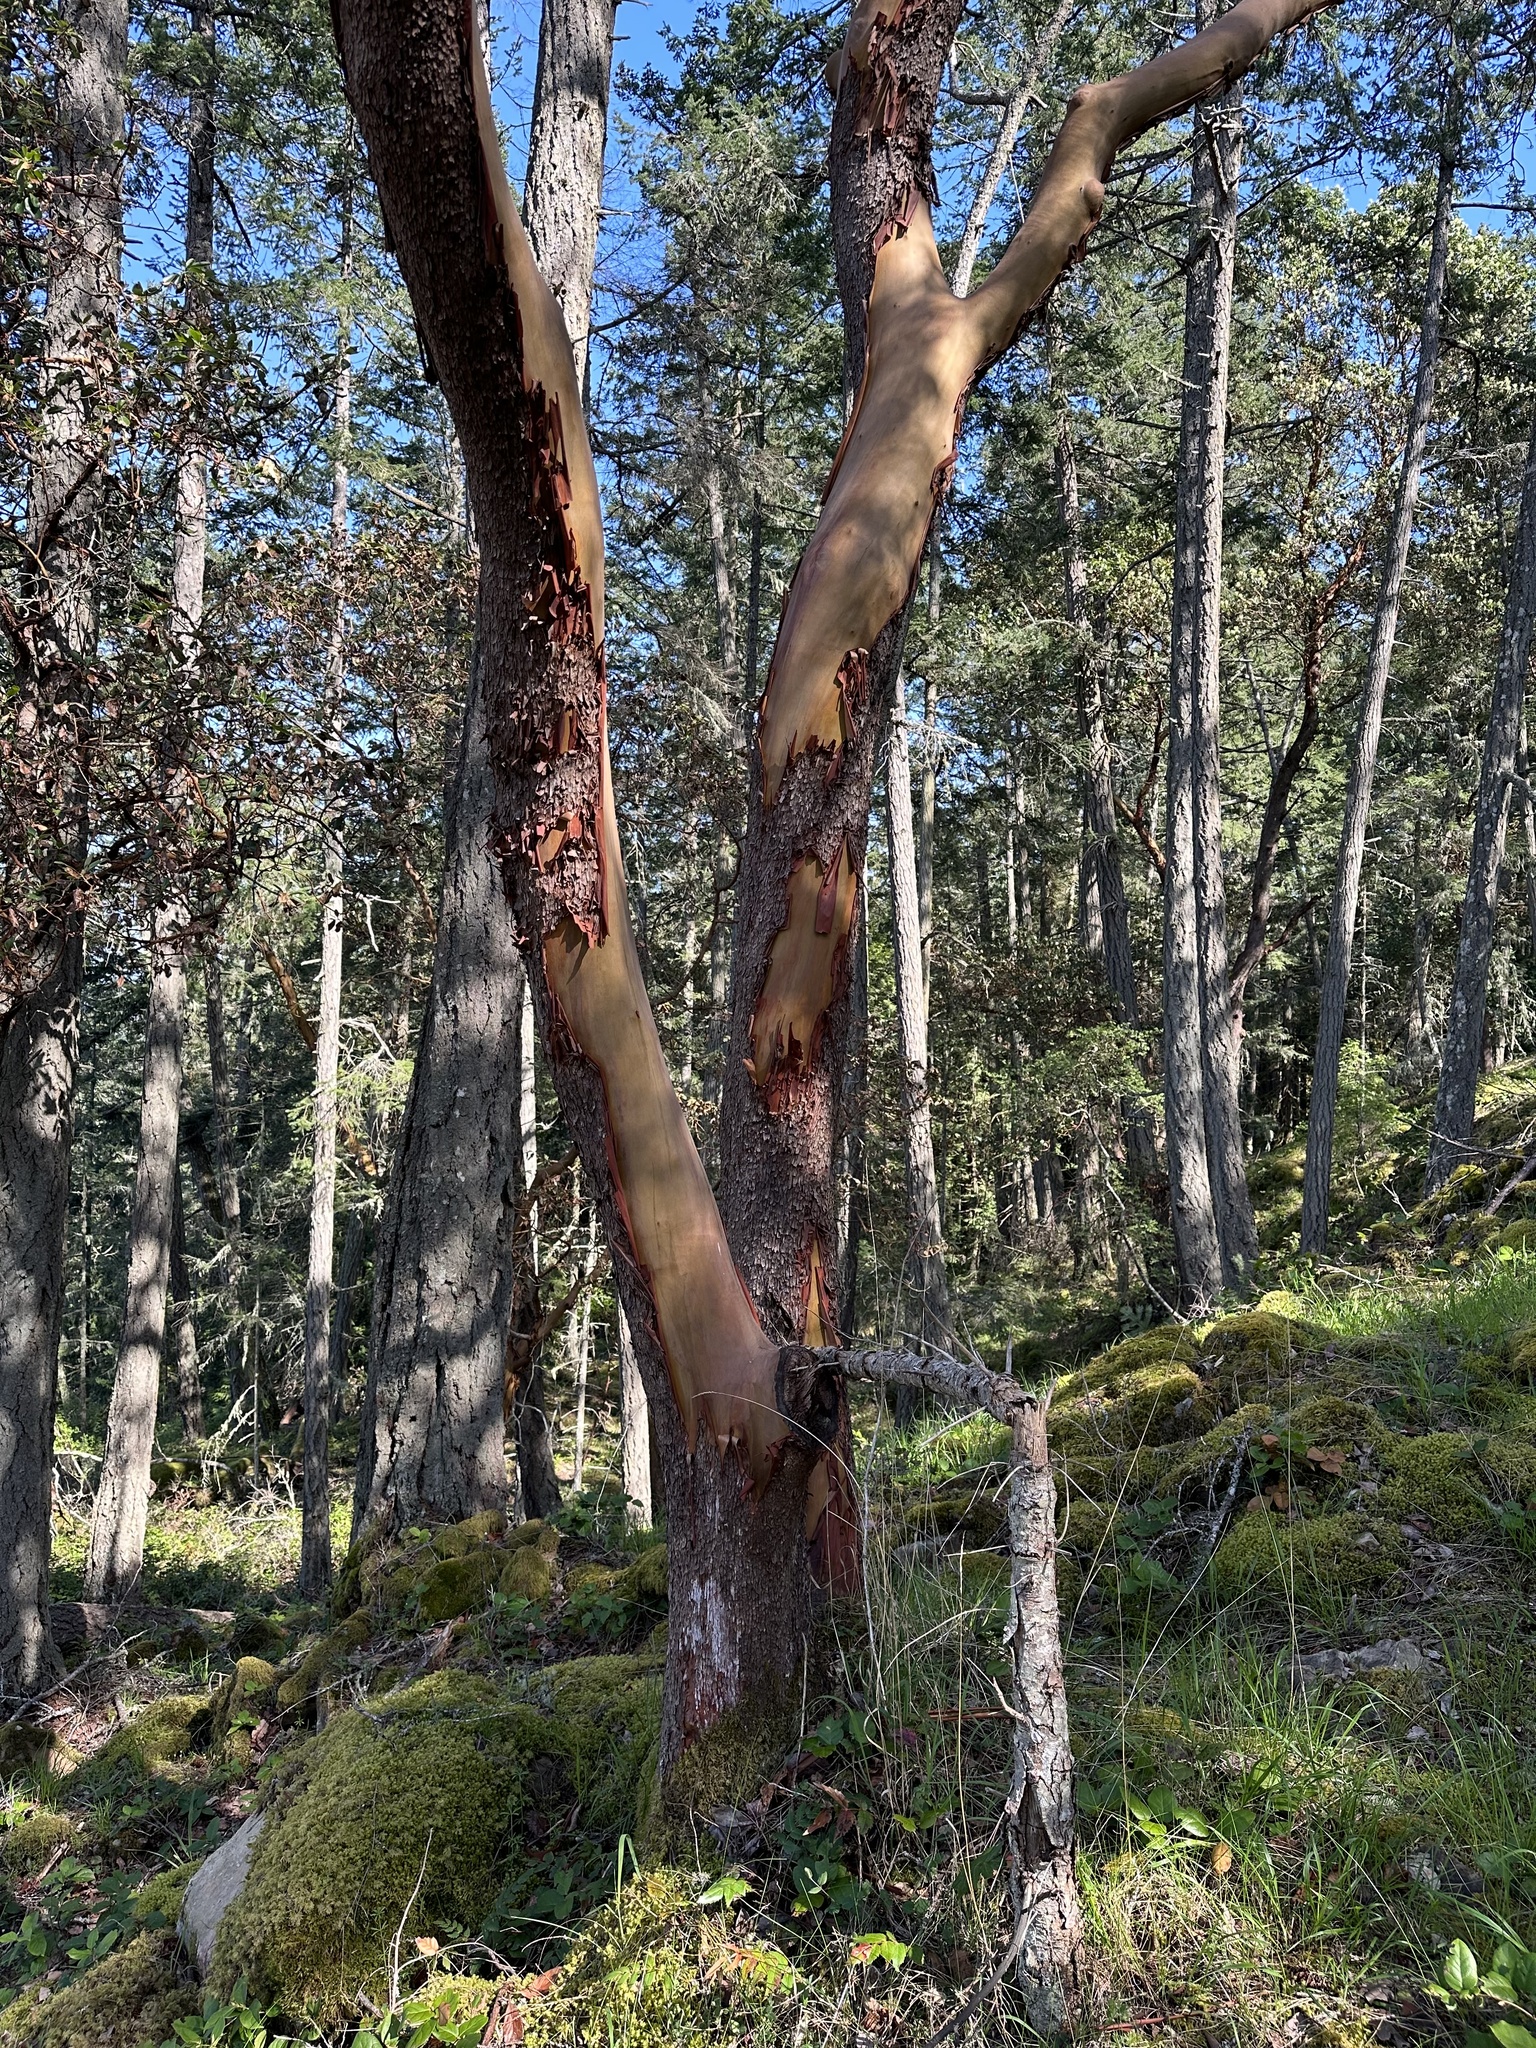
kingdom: Plantae
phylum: Tracheophyta
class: Magnoliopsida
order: Ericales
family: Ericaceae
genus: Arbutus
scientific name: Arbutus menziesii
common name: Pacific madrone
